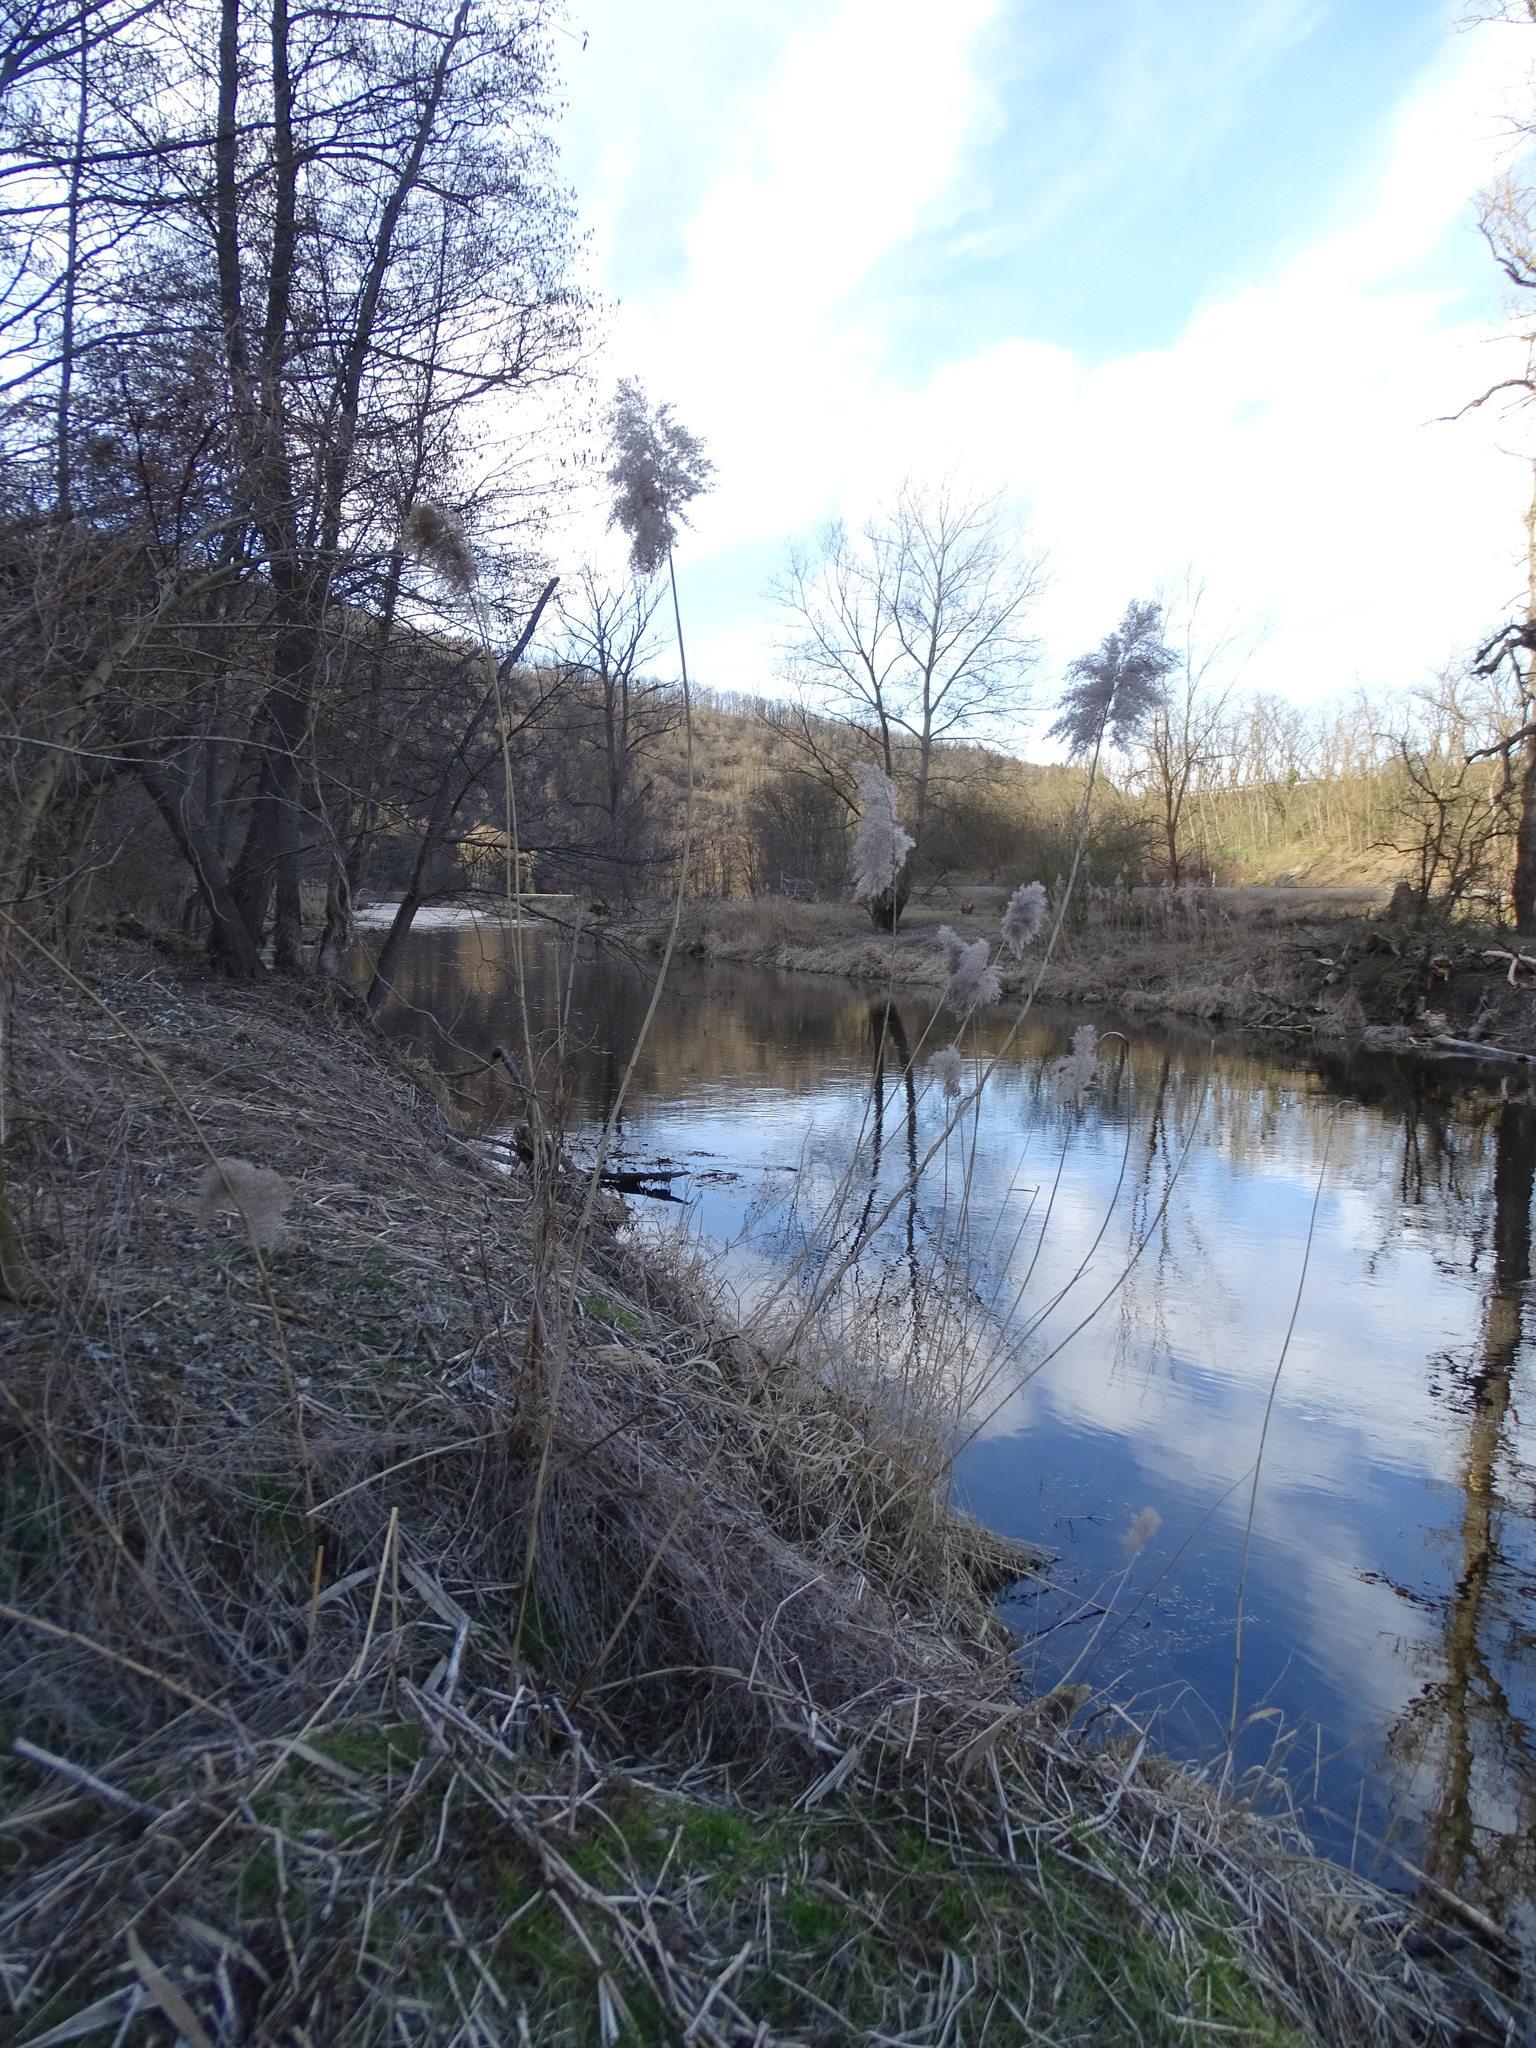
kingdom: Plantae
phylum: Tracheophyta
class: Liliopsida
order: Poales
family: Poaceae
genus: Phragmites
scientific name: Phragmites australis
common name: Common reed
